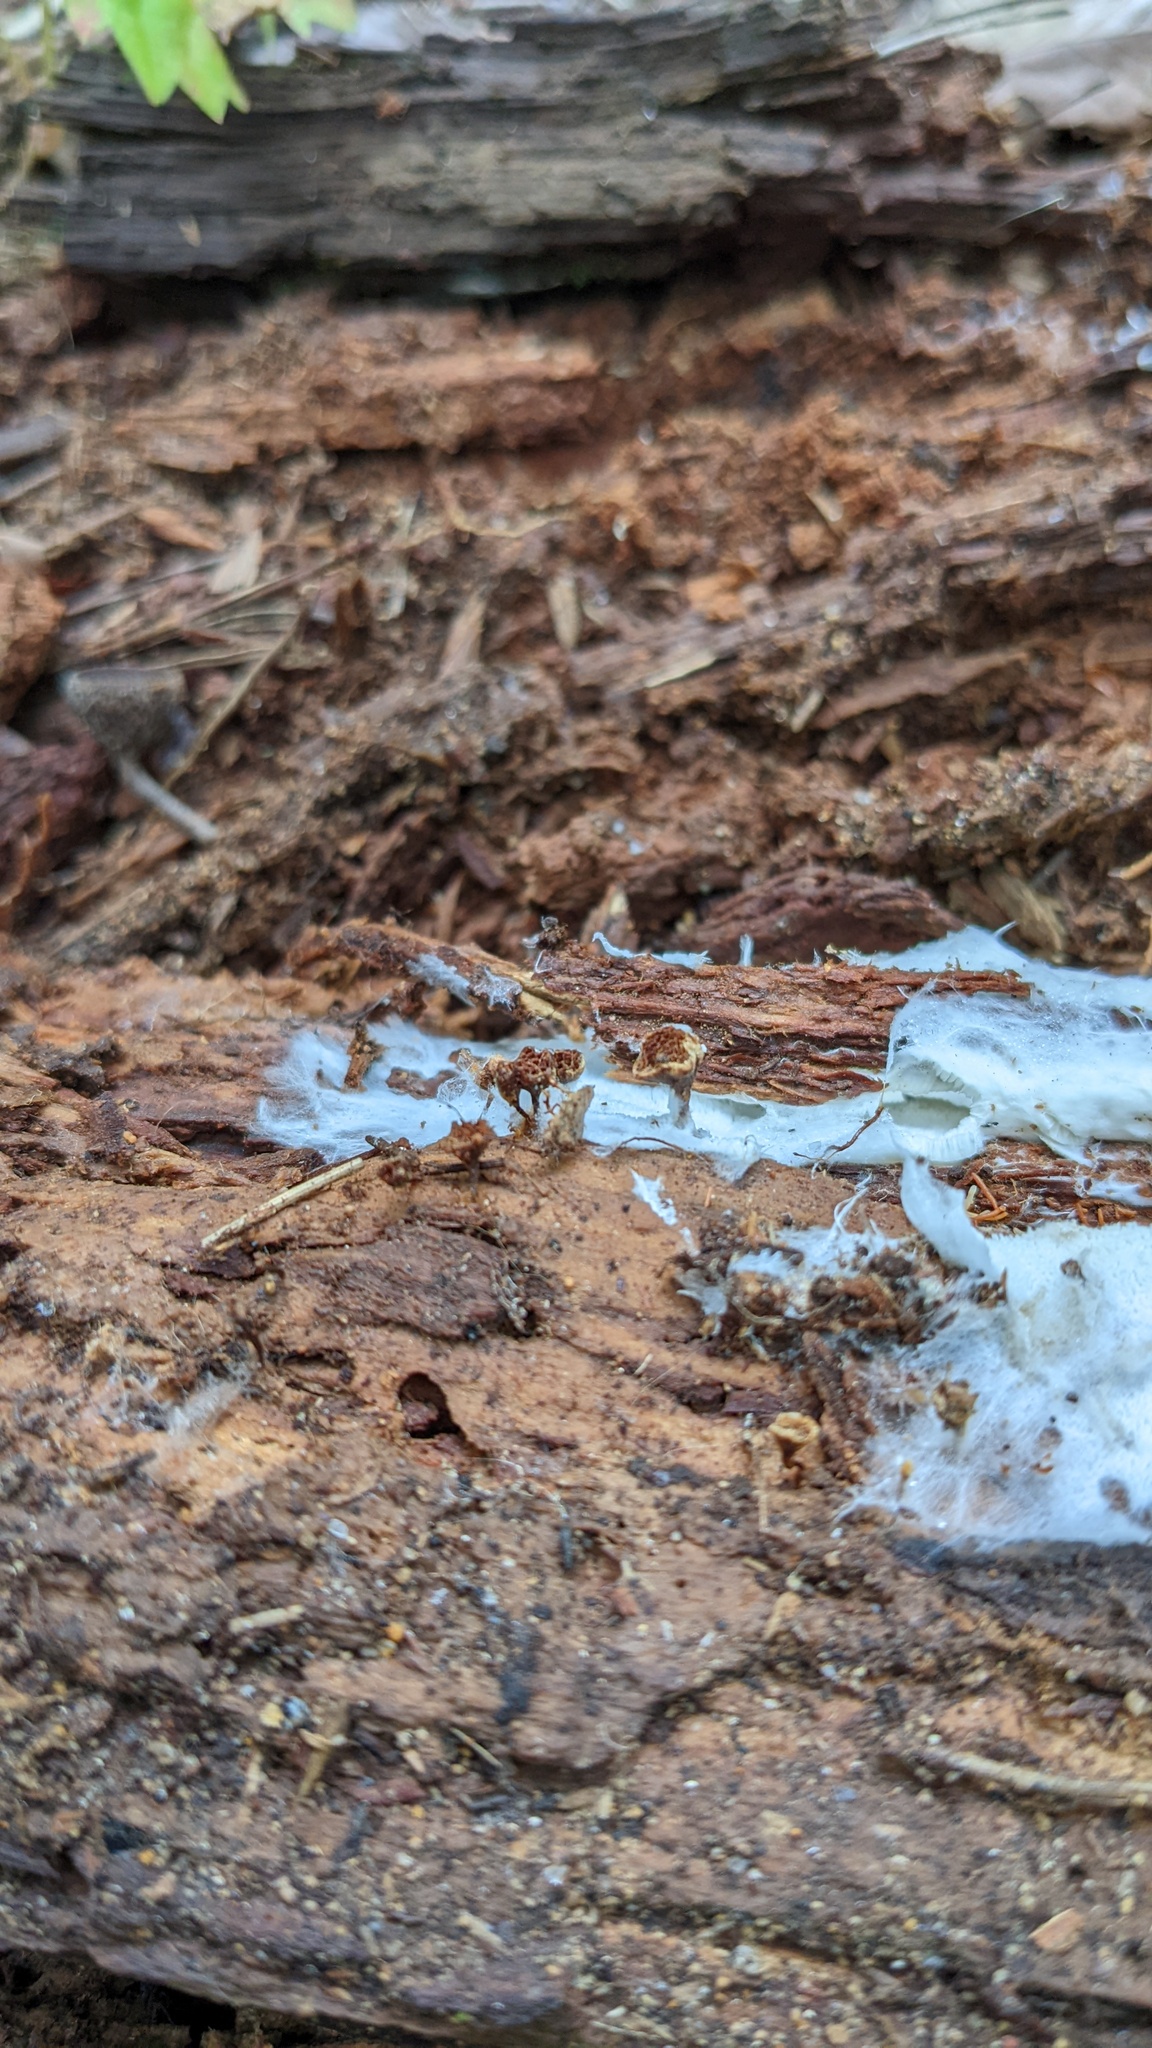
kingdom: Fungi
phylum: Basidiomycota
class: Agaricomycetes
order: Hymenochaetales
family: Hymenochaetaceae
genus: Coltriciella
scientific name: Coltriciella dependens
